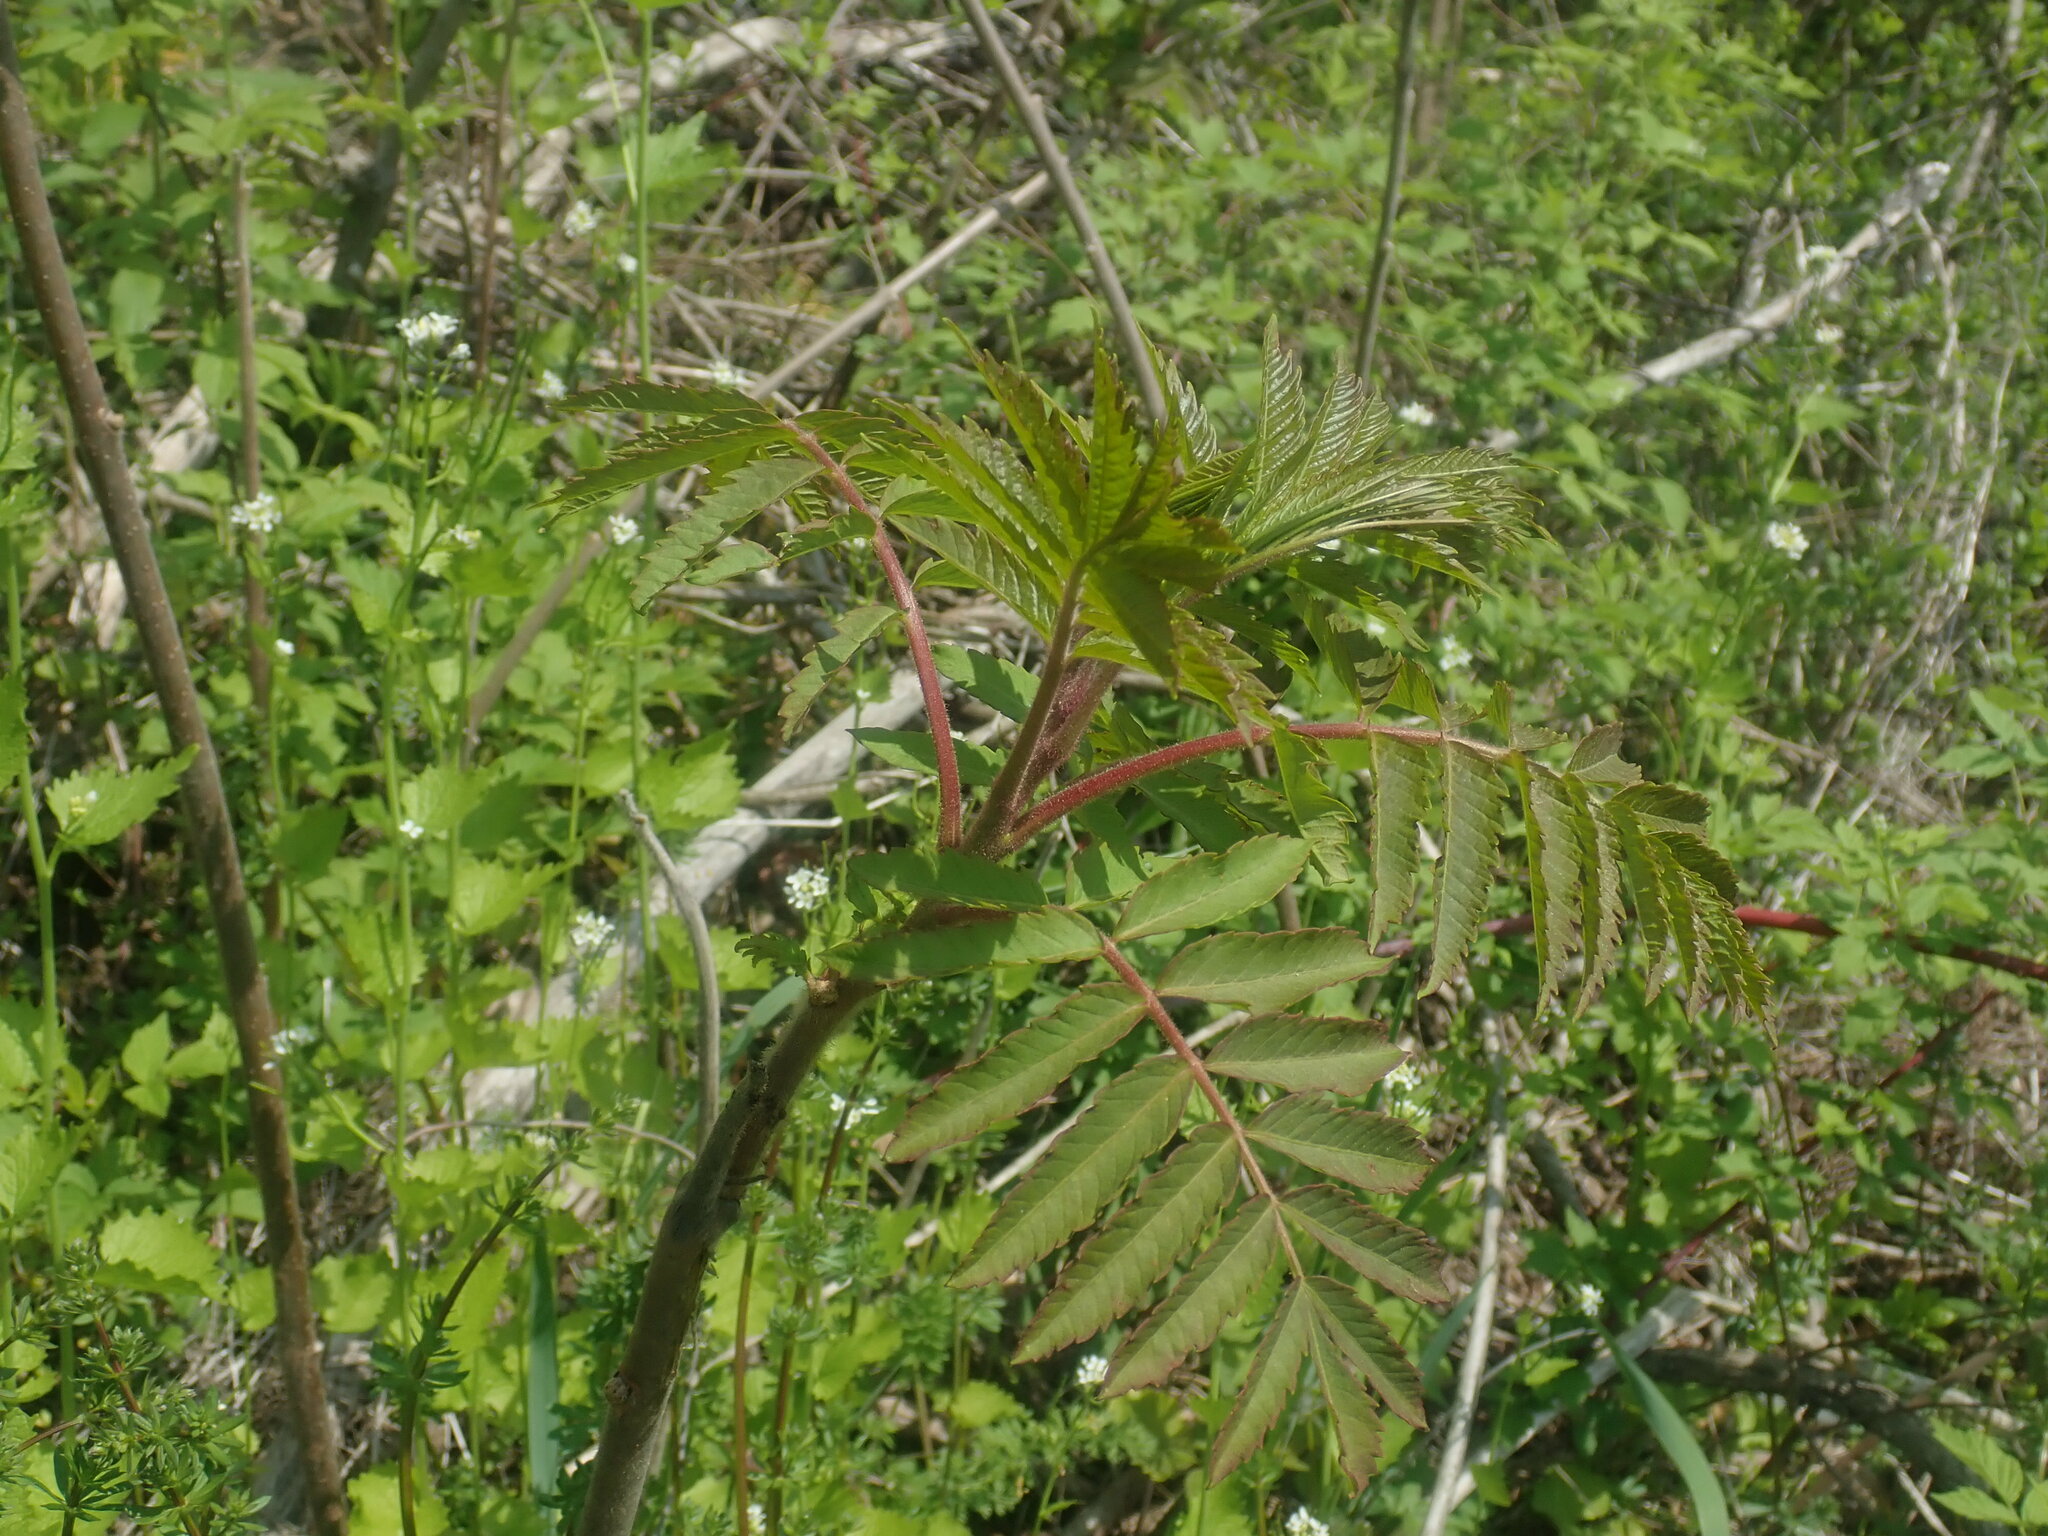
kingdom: Plantae
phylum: Tracheophyta
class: Magnoliopsida
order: Sapindales
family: Anacardiaceae
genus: Rhus
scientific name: Rhus typhina
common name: Staghorn sumac
